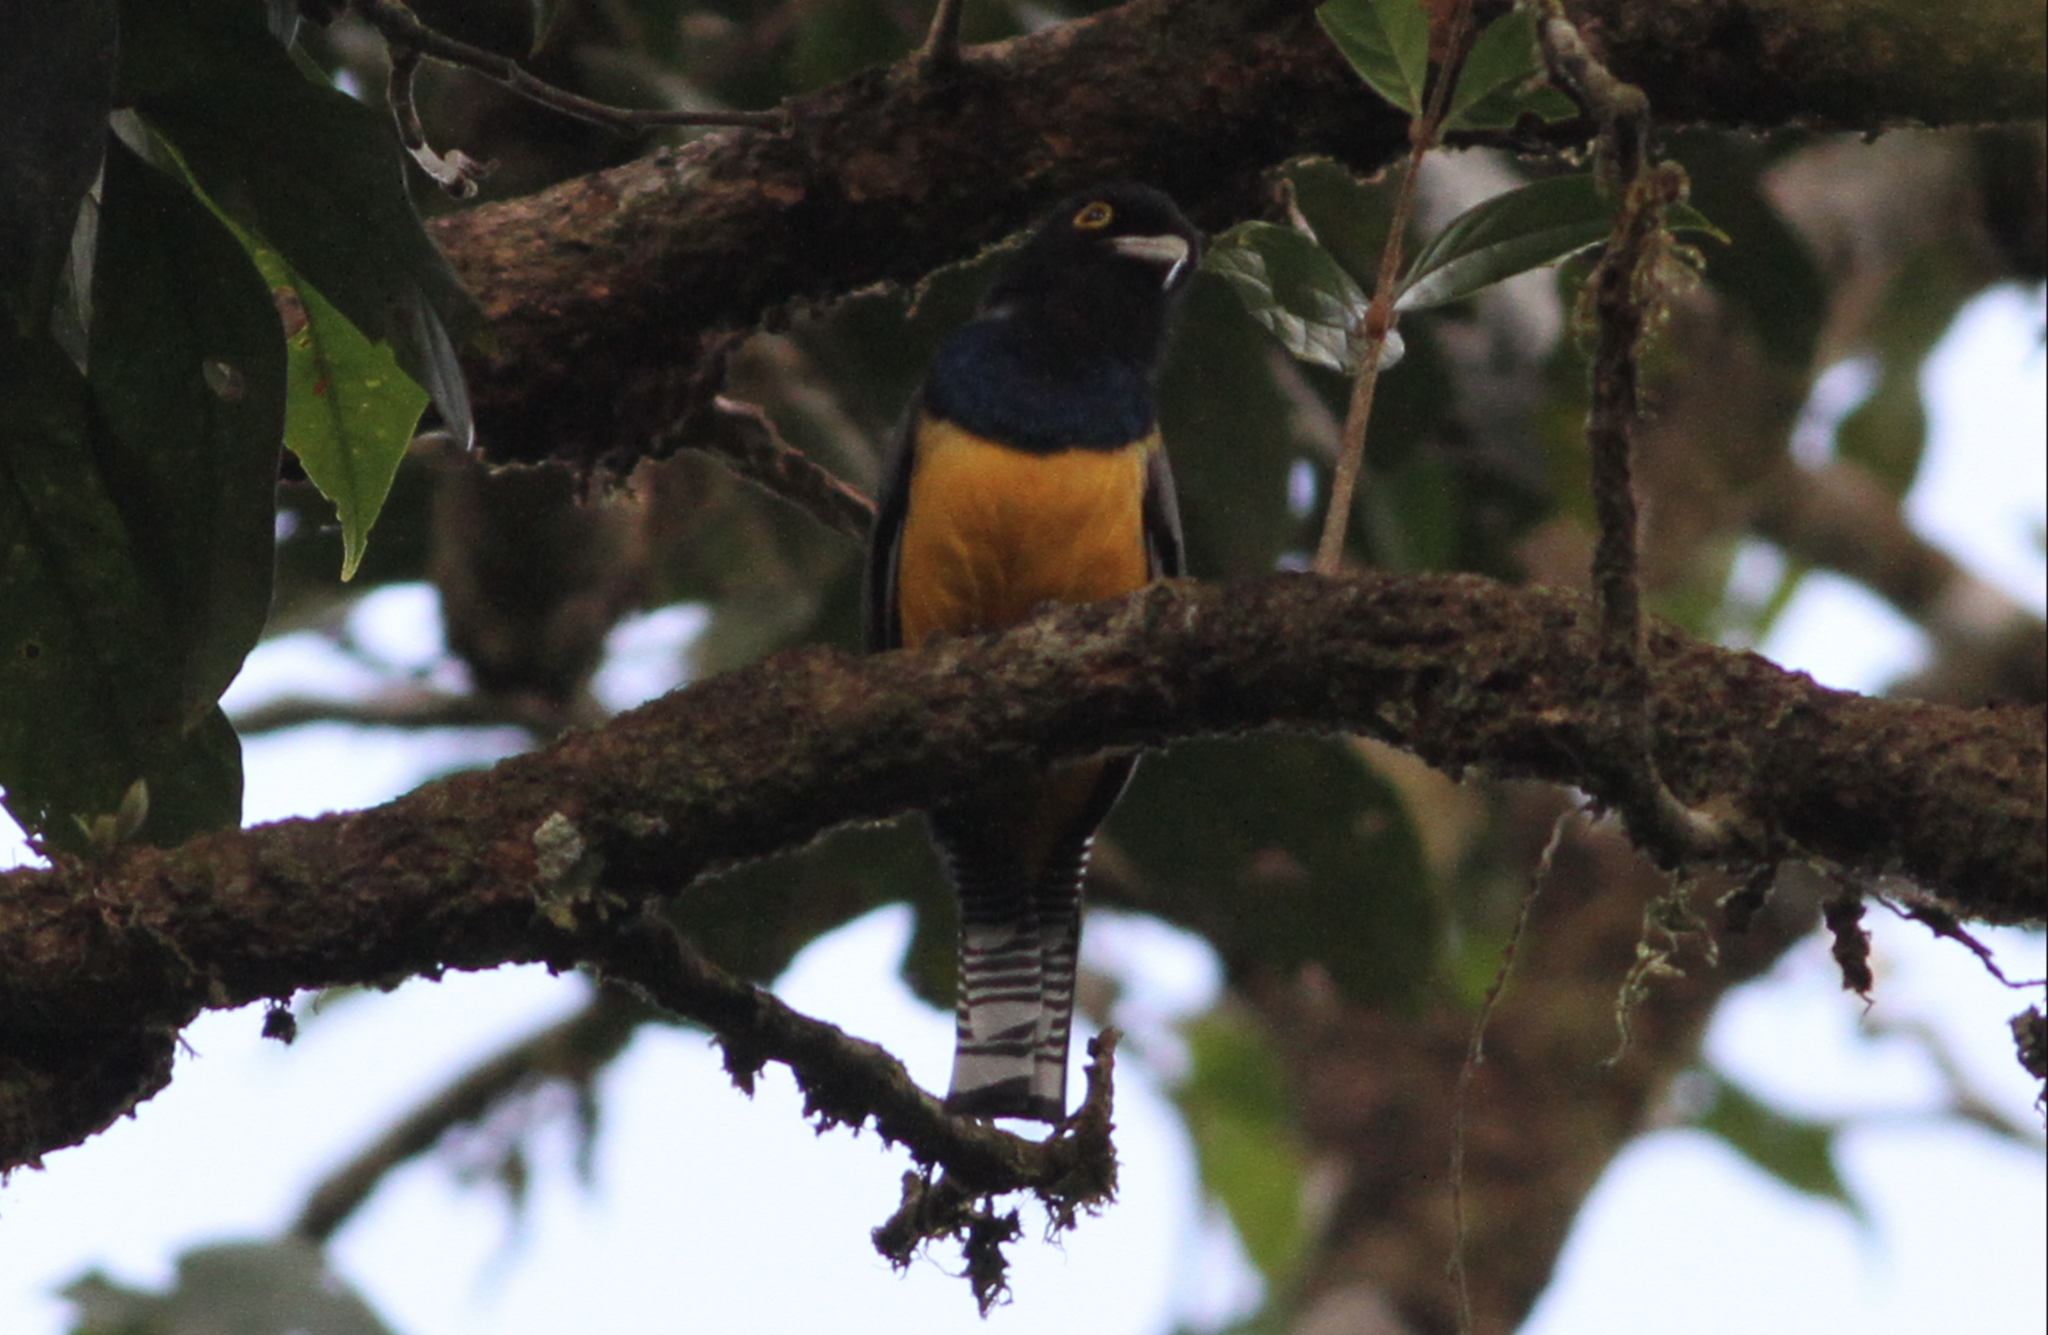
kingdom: Animalia
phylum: Chordata
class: Aves
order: Trogoniformes
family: Trogonidae
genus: Trogon
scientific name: Trogon caligatus
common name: Gartered trogon
